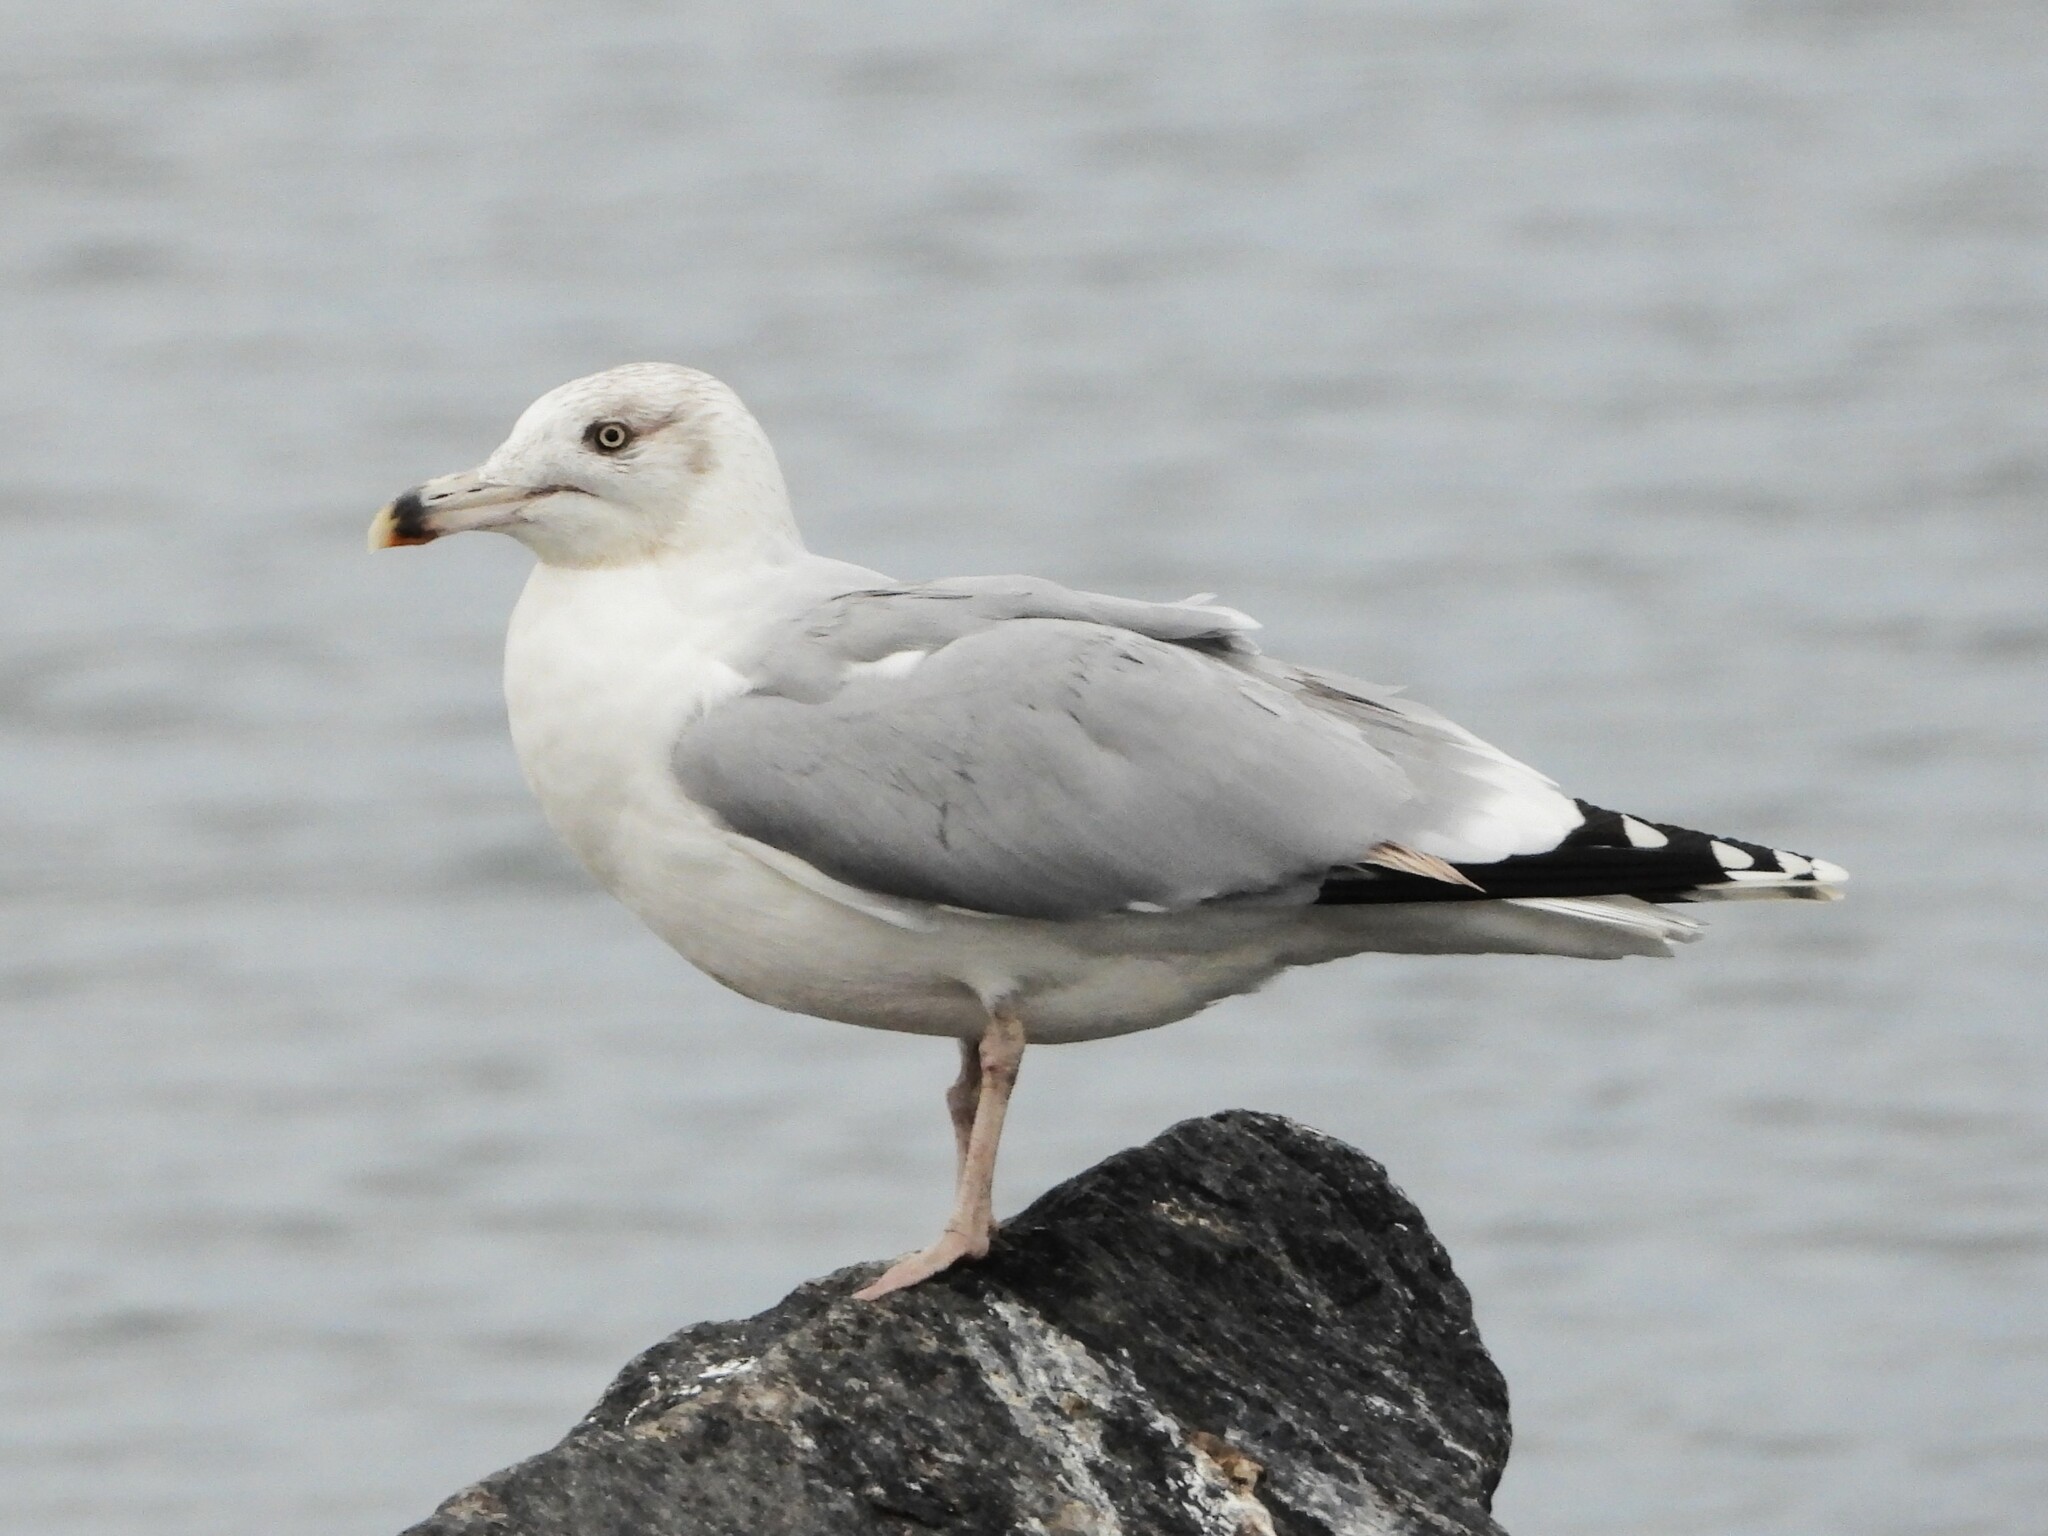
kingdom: Animalia
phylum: Chordata
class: Aves
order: Charadriiformes
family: Laridae
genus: Larus
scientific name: Larus argentatus
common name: Herring gull
